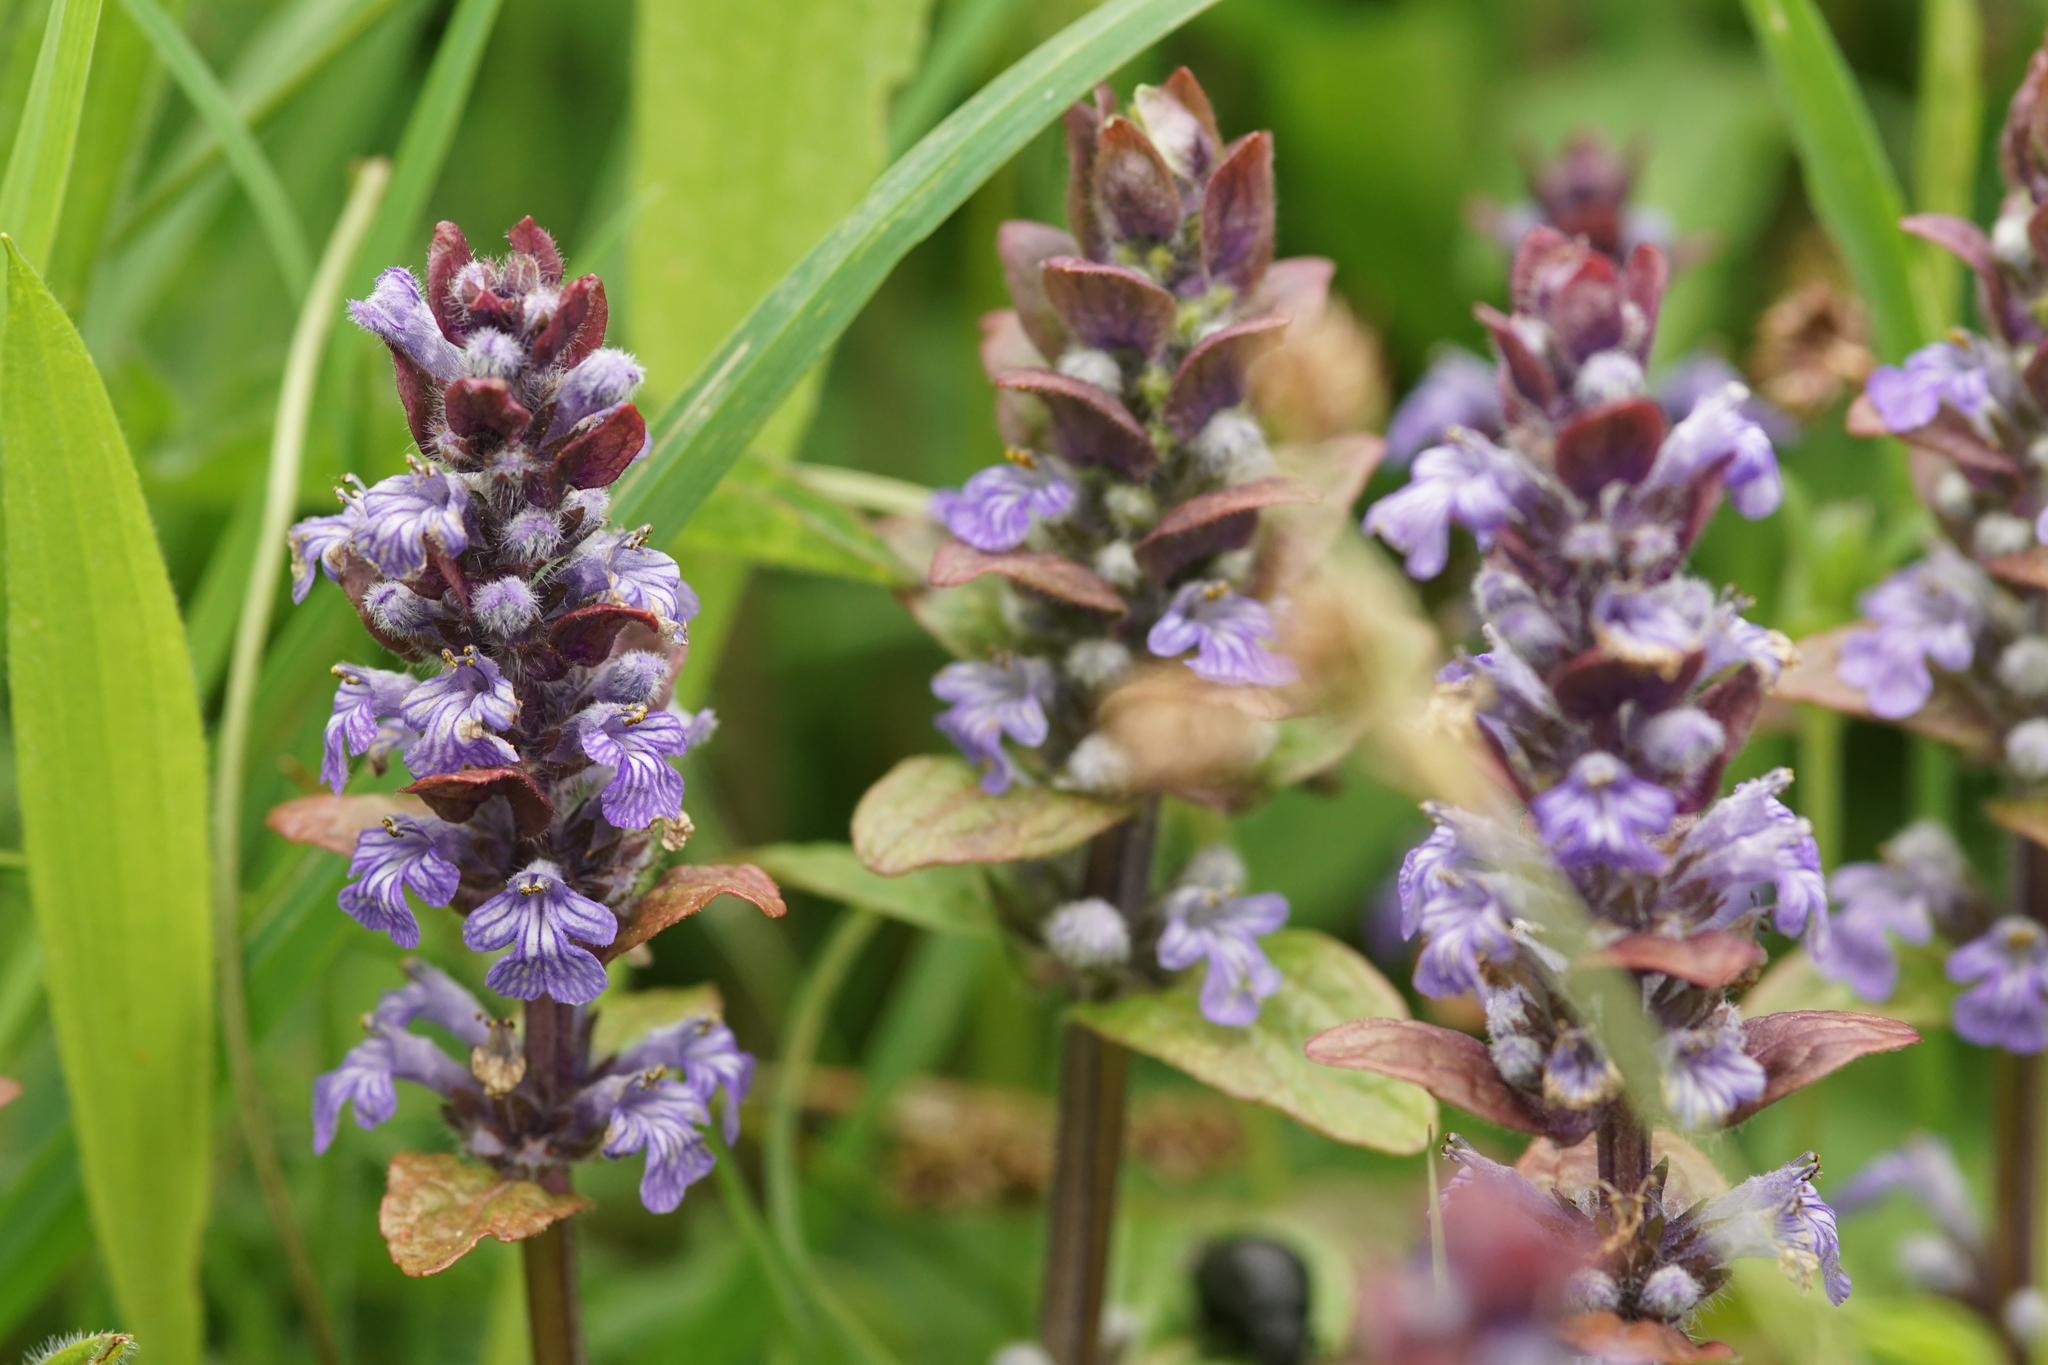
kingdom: Plantae
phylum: Tracheophyta
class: Magnoliopsida
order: Lamiales
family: Lamiaceae
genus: Ajuga
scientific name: Ajuga reptans
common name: Bugle
